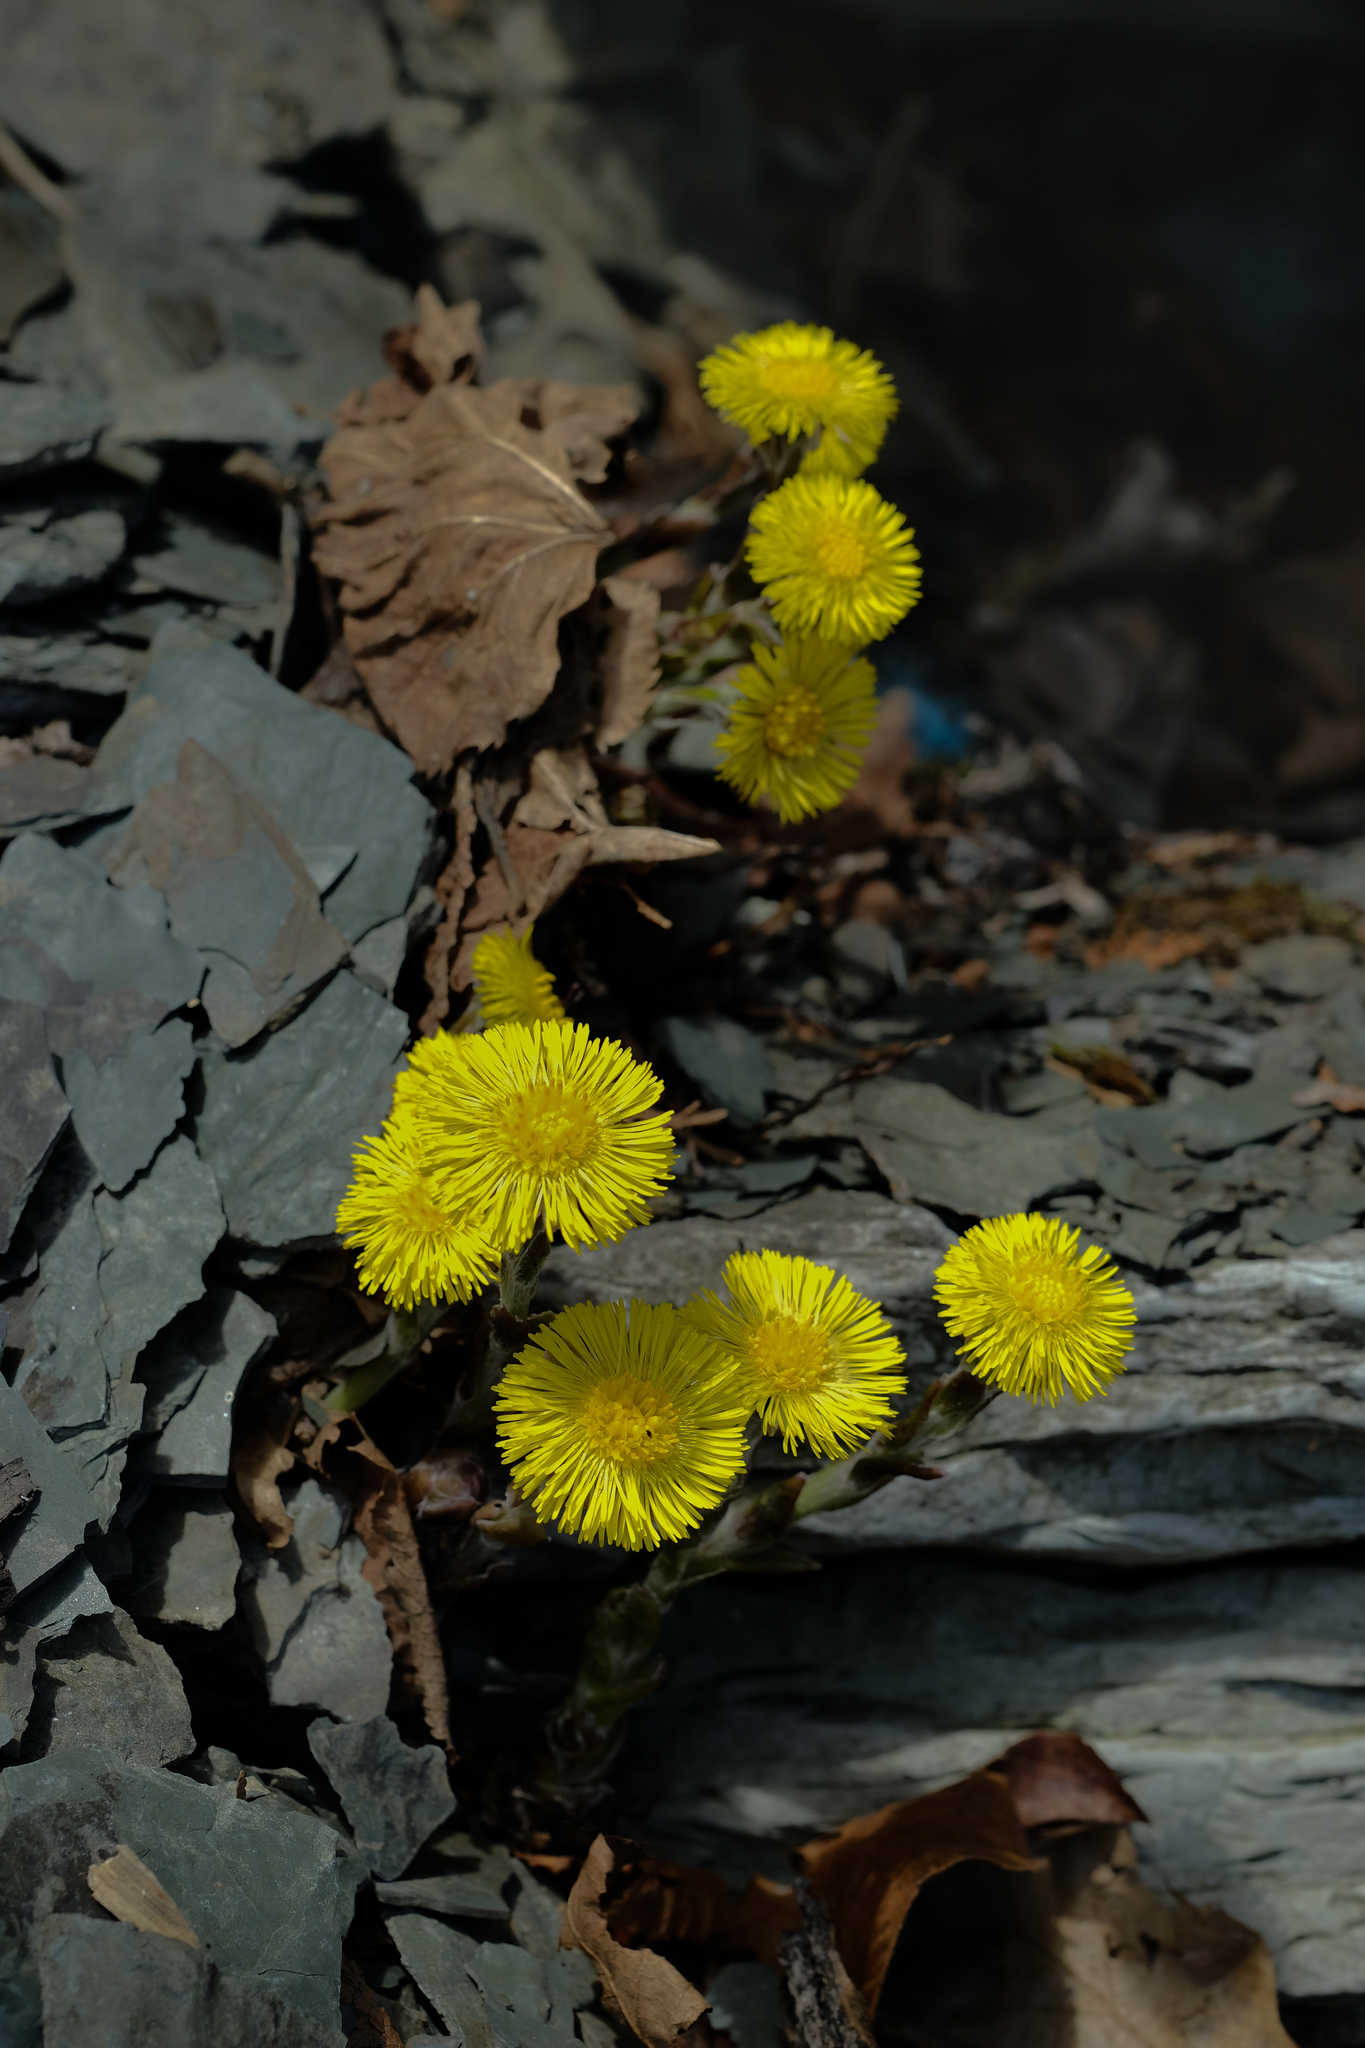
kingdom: Plantae
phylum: Tracheophyta
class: Magnoliopsida
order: Asterales
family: Asteraceae
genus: Tussilago
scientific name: Tussilago farfara
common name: Coltsfoot
